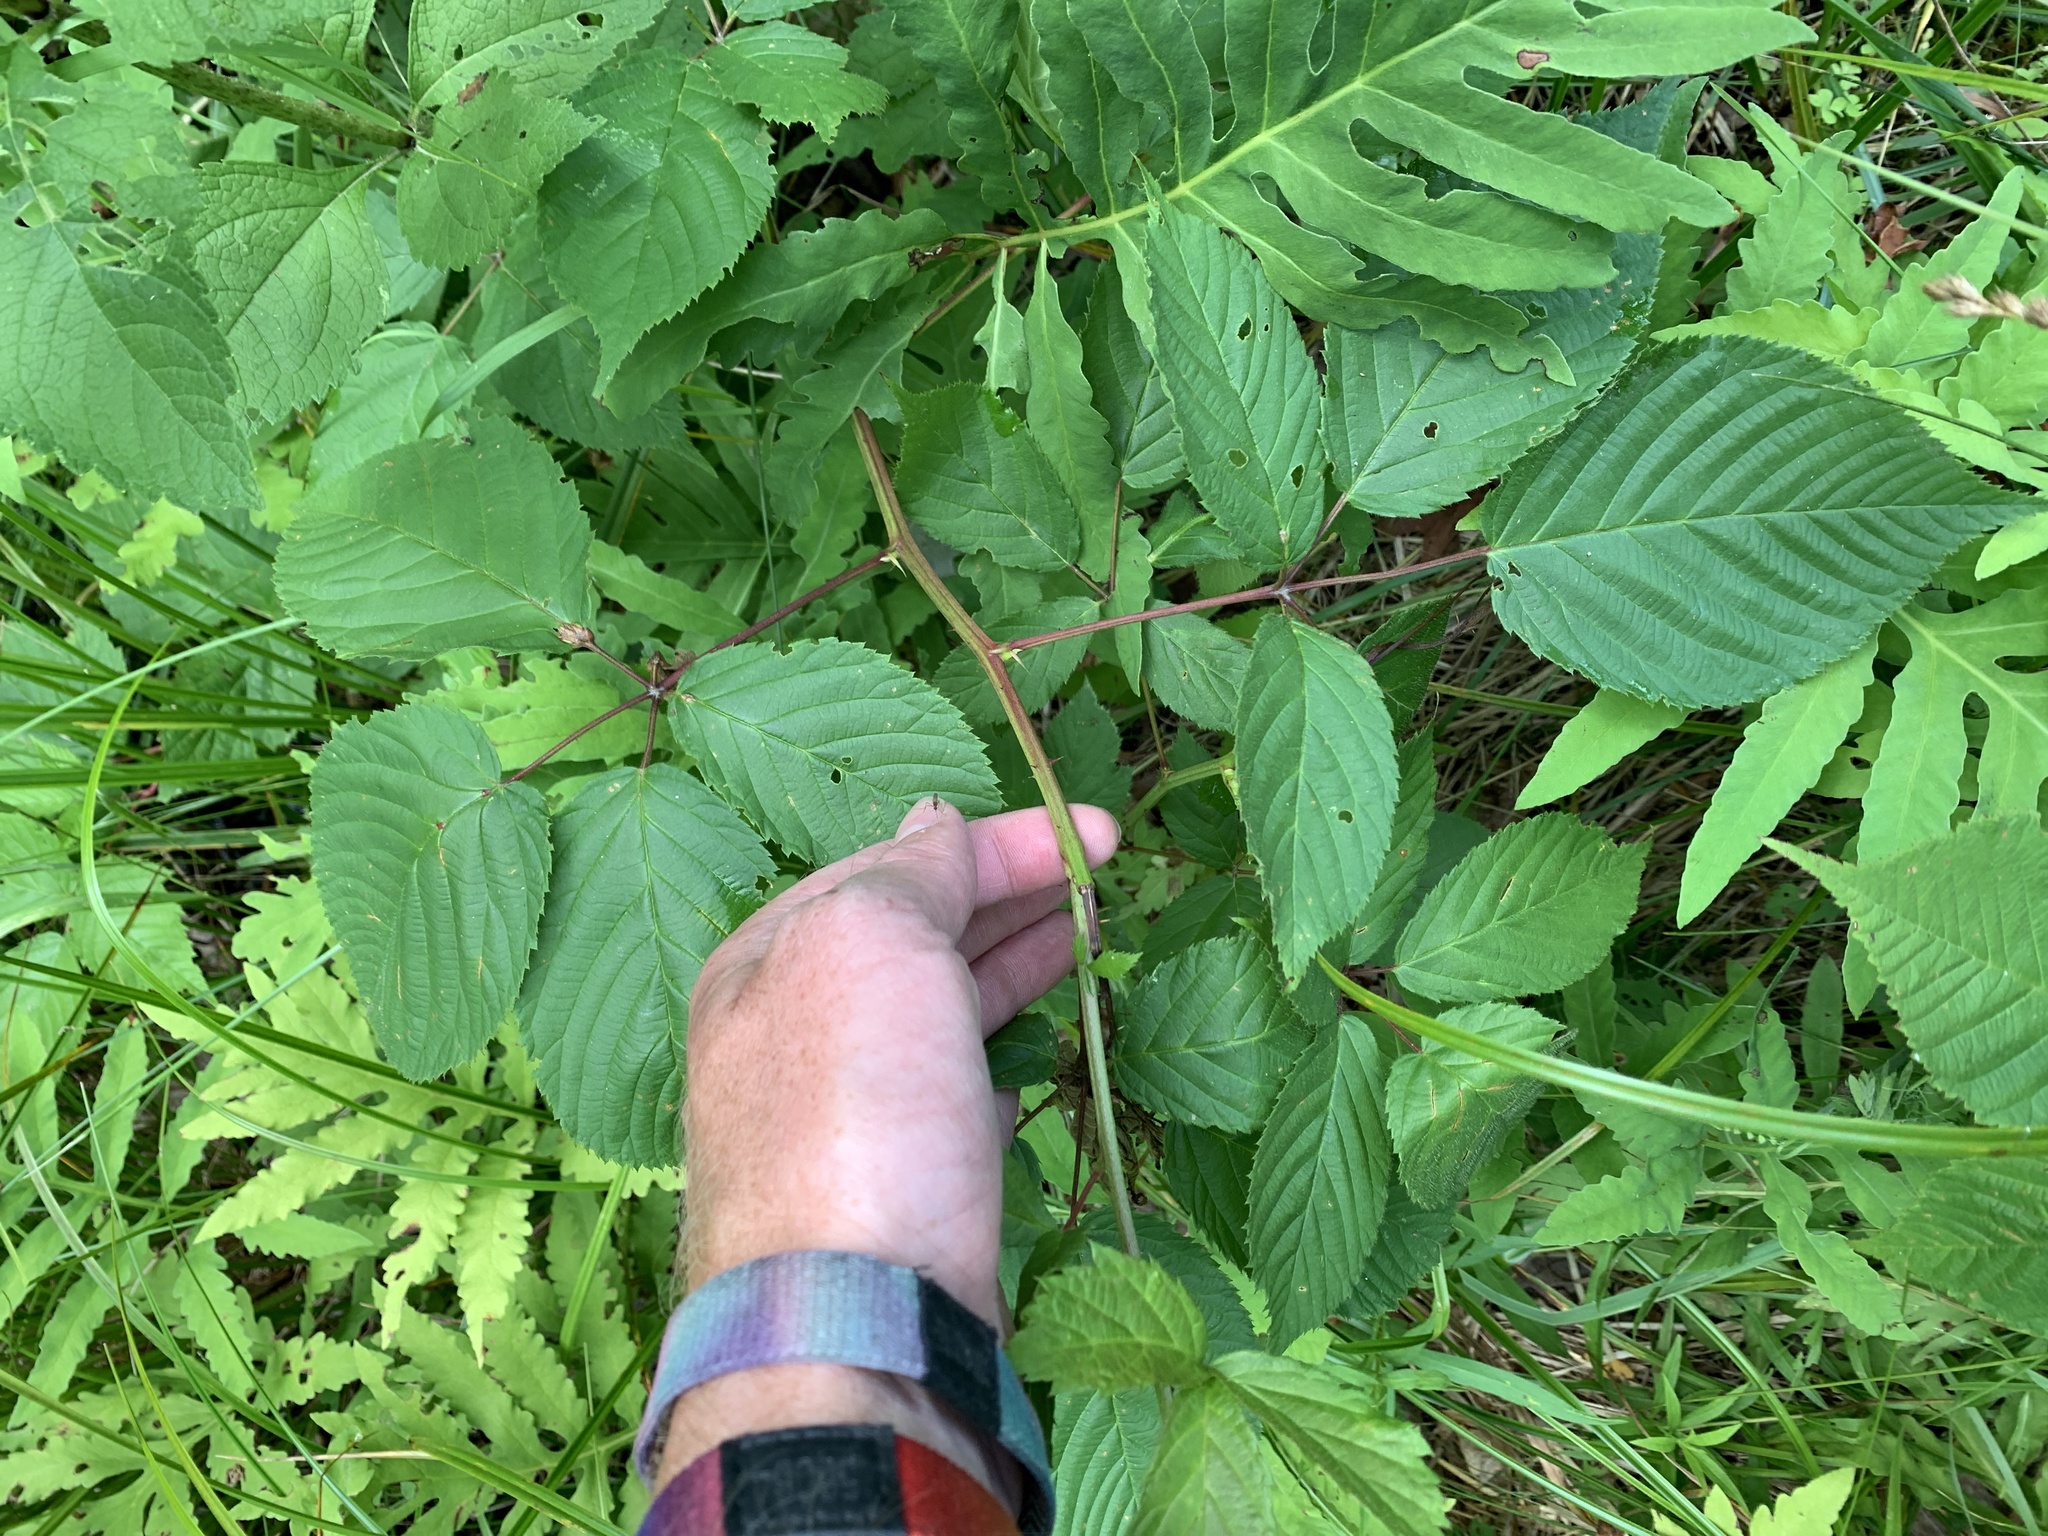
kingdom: Plantae
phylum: Tracheophyta
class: Magnoliopsida
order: Rosales
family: Rosaceae
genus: Rubus
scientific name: Rubus canadensis
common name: Smooth blackberry
